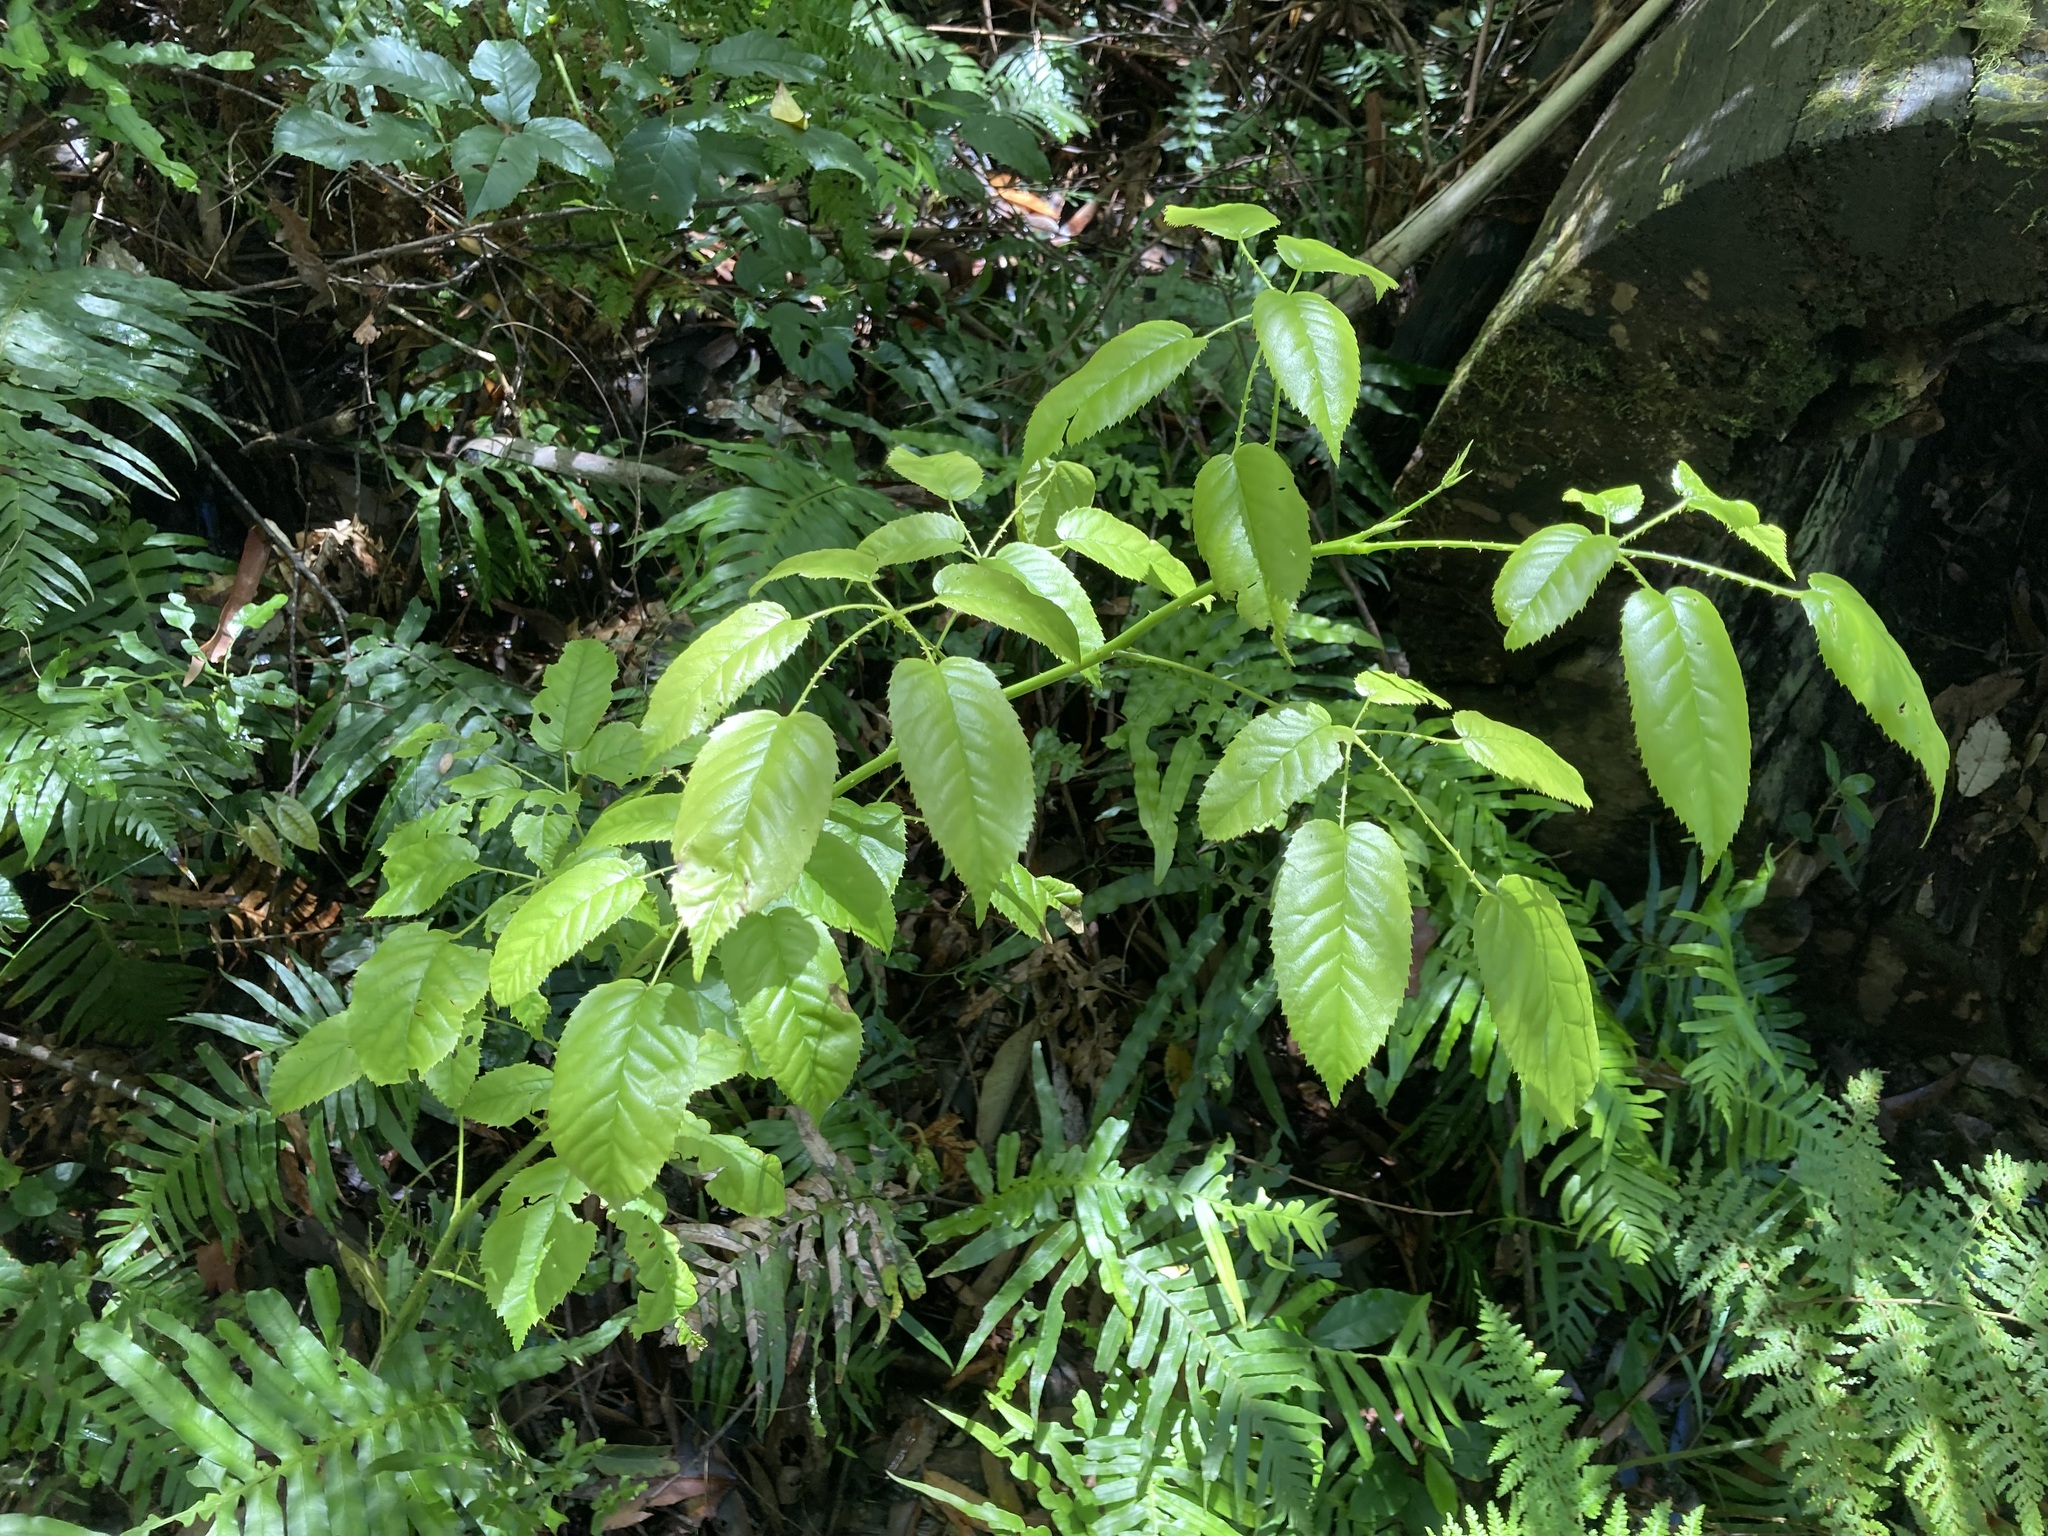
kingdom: Plantae
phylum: Tracheophyta
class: Magnoliopsida
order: Rosales
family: Rosaceae
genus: Rubus
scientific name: Rubus nebulosus
